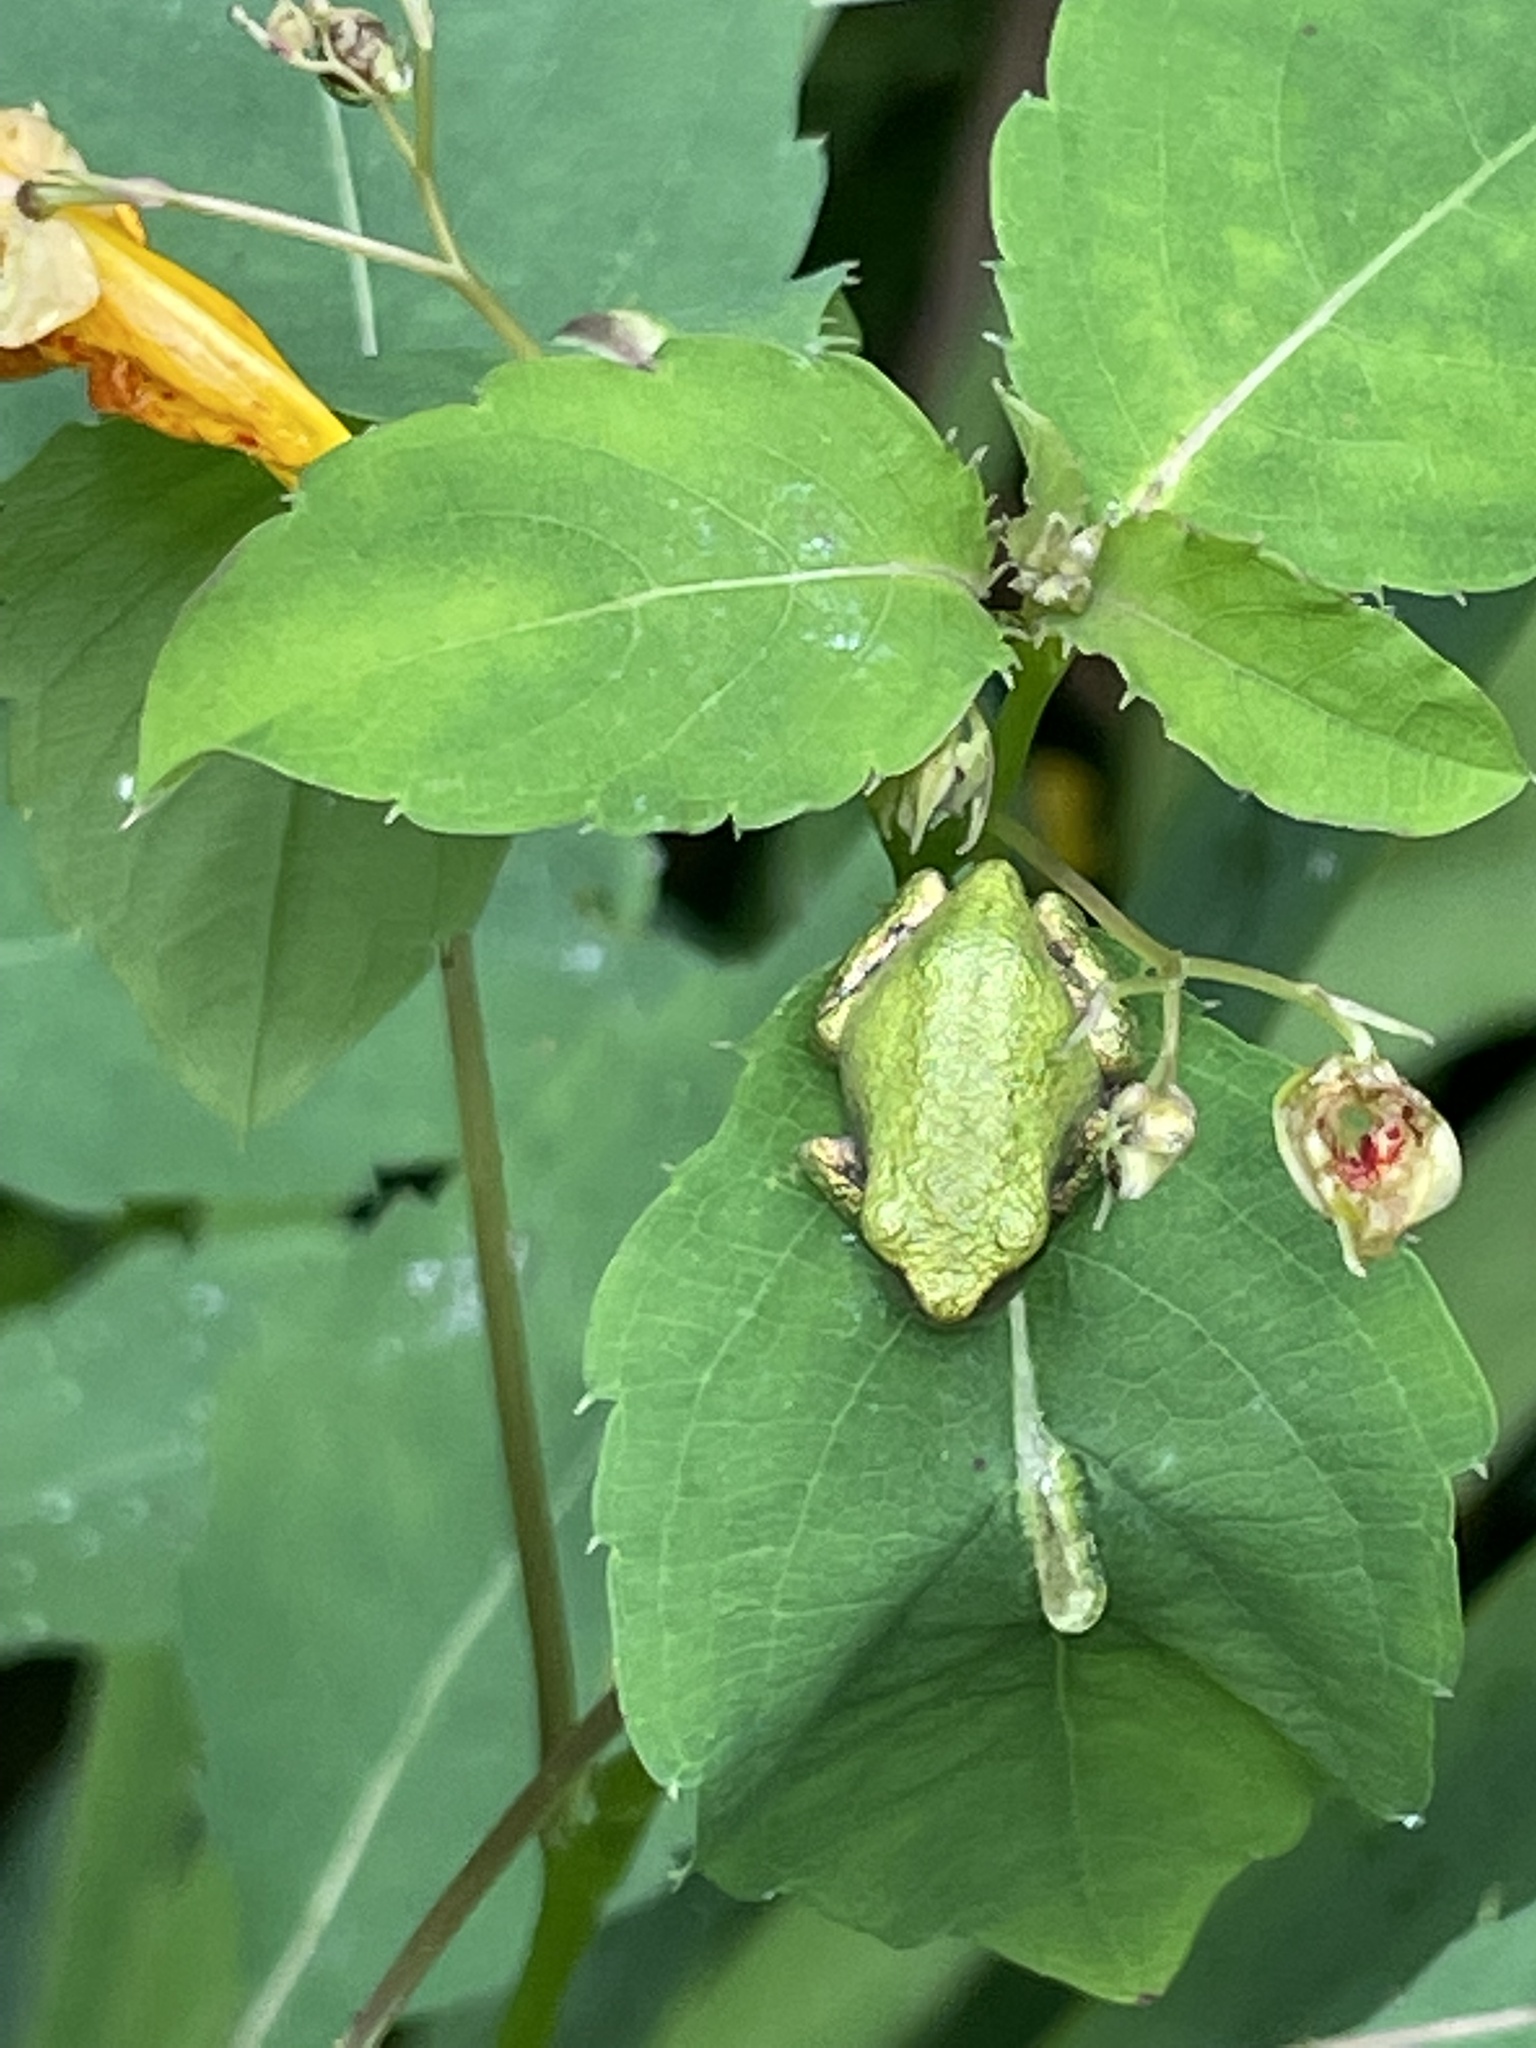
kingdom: Animalia
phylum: Chordata
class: Amphibia
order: Anura
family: Hylidae
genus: Dryophytes
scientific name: Dryophytes chrysoscelis
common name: Cope's gray treefrog
